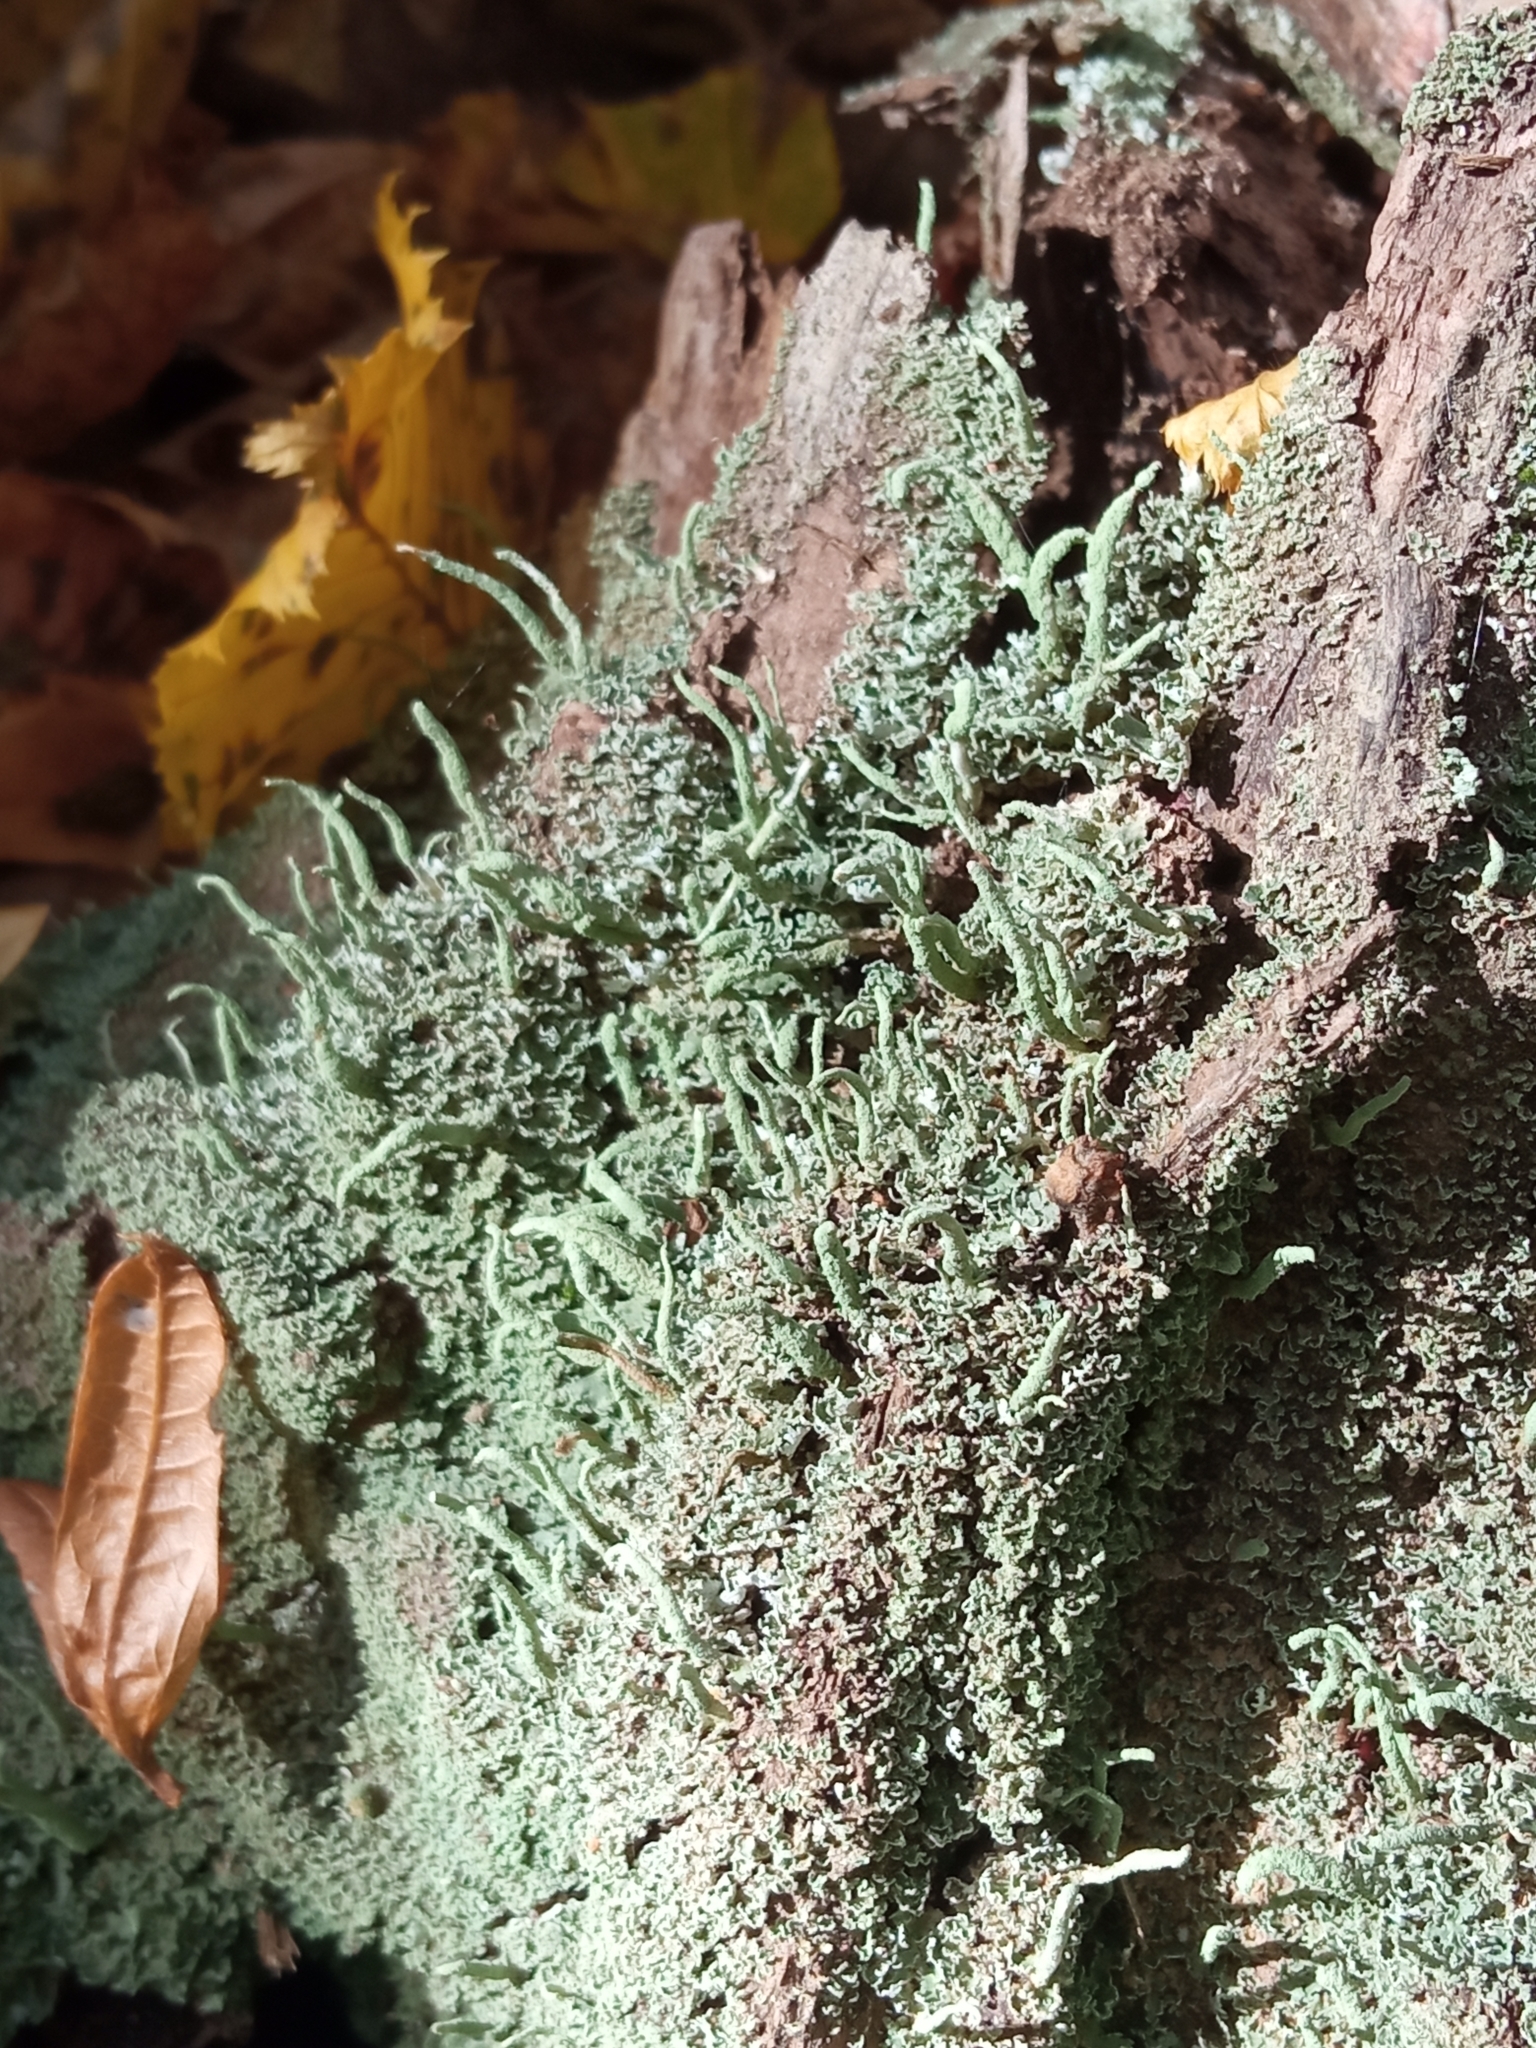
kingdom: Fungi
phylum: Ascomycota
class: Lecanoromycetes
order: Lecanorales
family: Cladoniaceae
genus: Cladonia
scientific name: Cladonia coniocraea
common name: Common powderhorn
